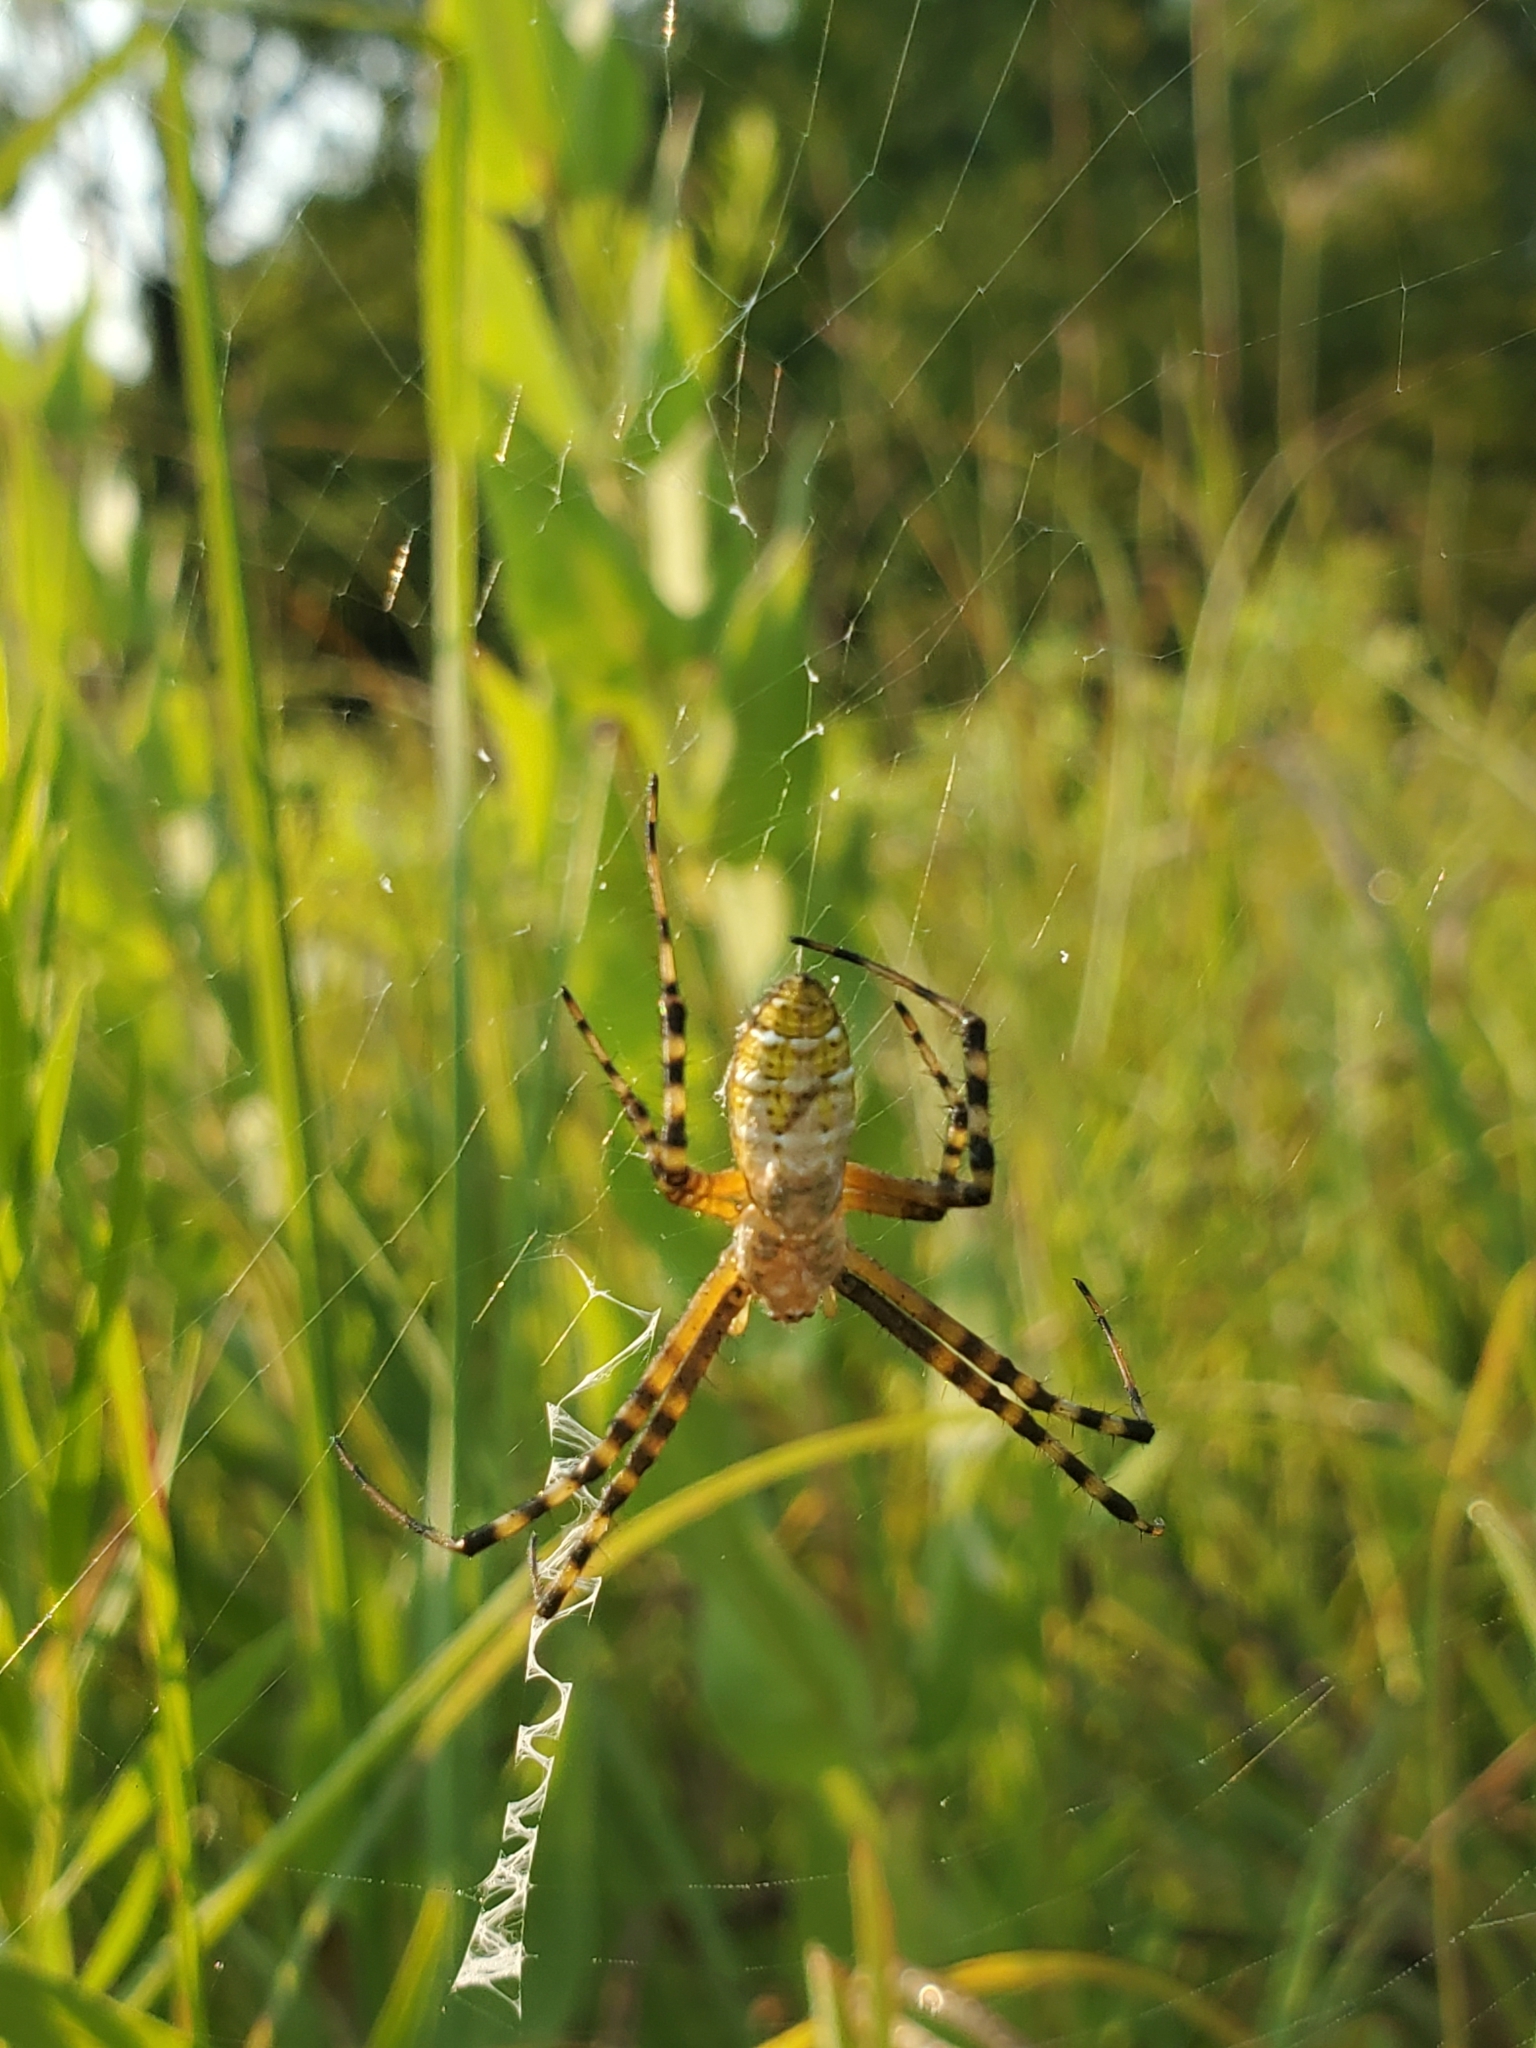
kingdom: Animalia
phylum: Arthropoda
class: Arachnida
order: Araneae
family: Araneidae
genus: Argiope
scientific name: Argiope trifasciata
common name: Banded garden spider
